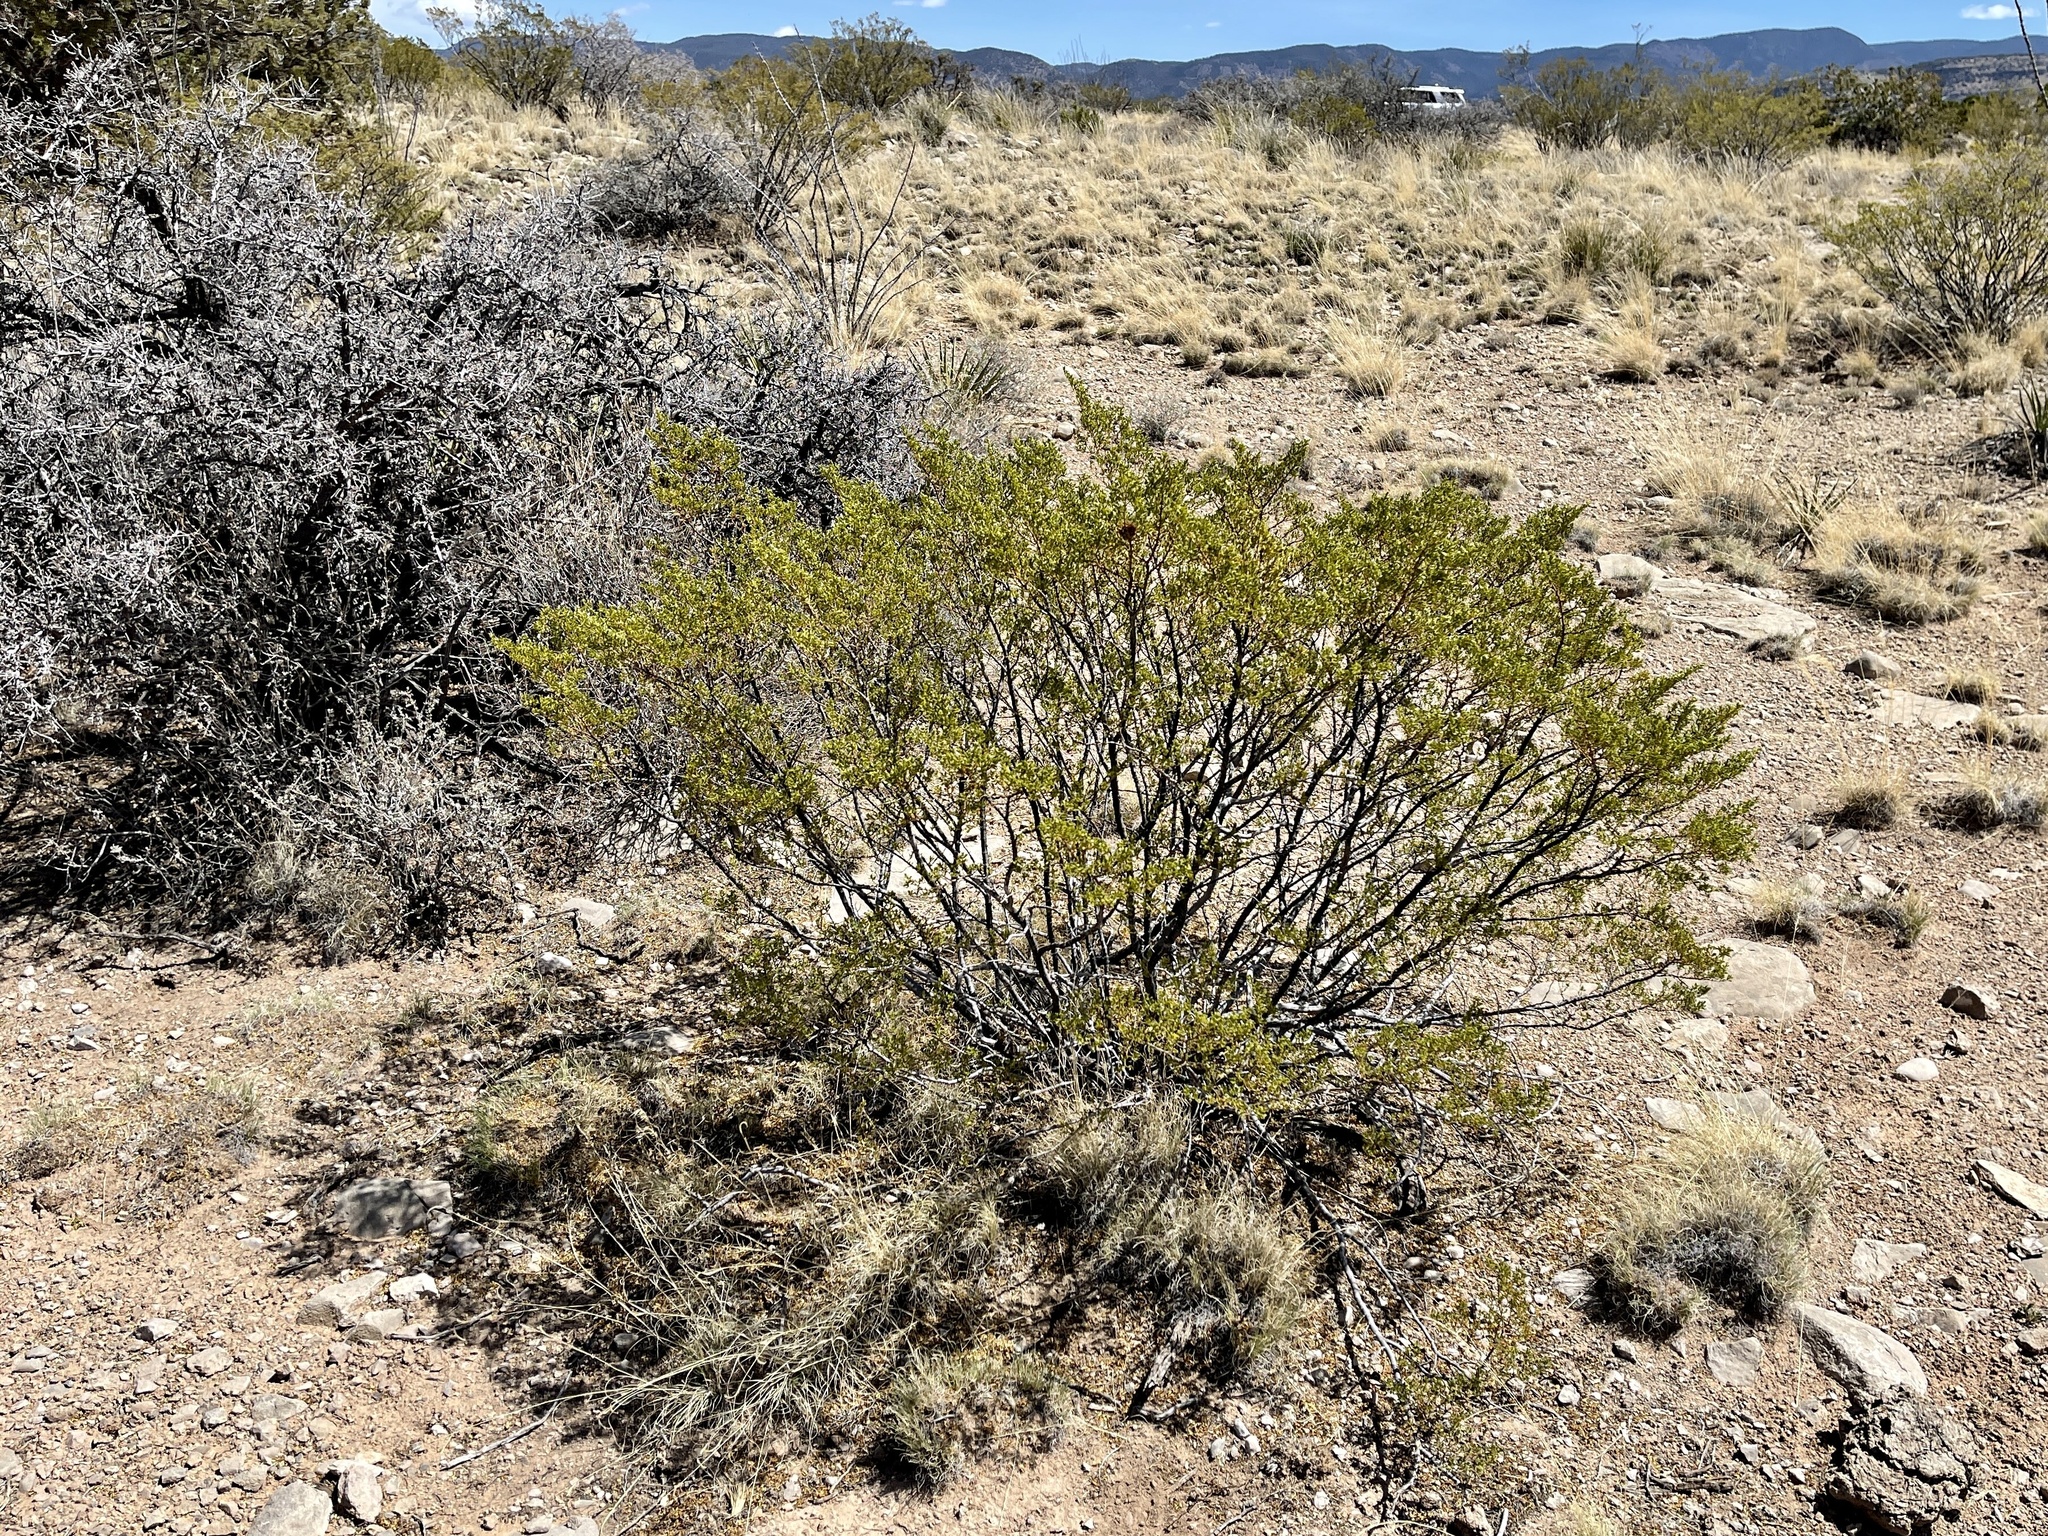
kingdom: Plantae
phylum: Tracheophyta
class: Magnoliopsida
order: Zygophyllales
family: Zygophyllaceae
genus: Larrea
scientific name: Larrea tridentata
